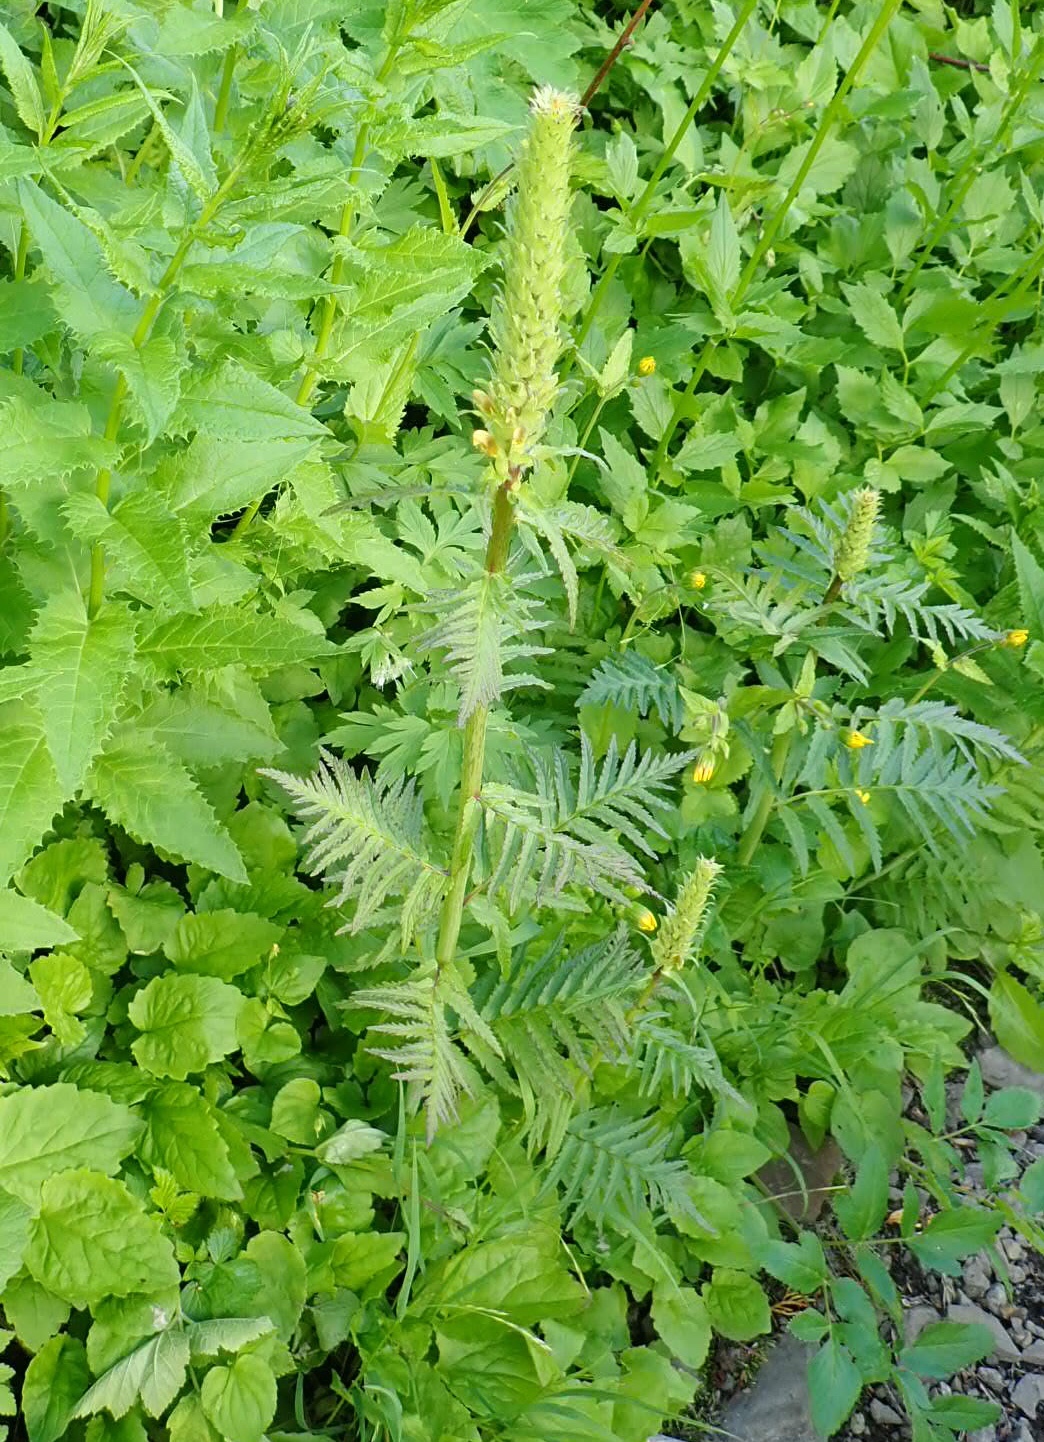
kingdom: Plantae
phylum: Tracheophyta
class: Magnoliopsida
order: Lamiales
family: Orobanchaceae
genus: Pedicularis
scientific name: Pedicularis bracteosa
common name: Bracted lousewort
